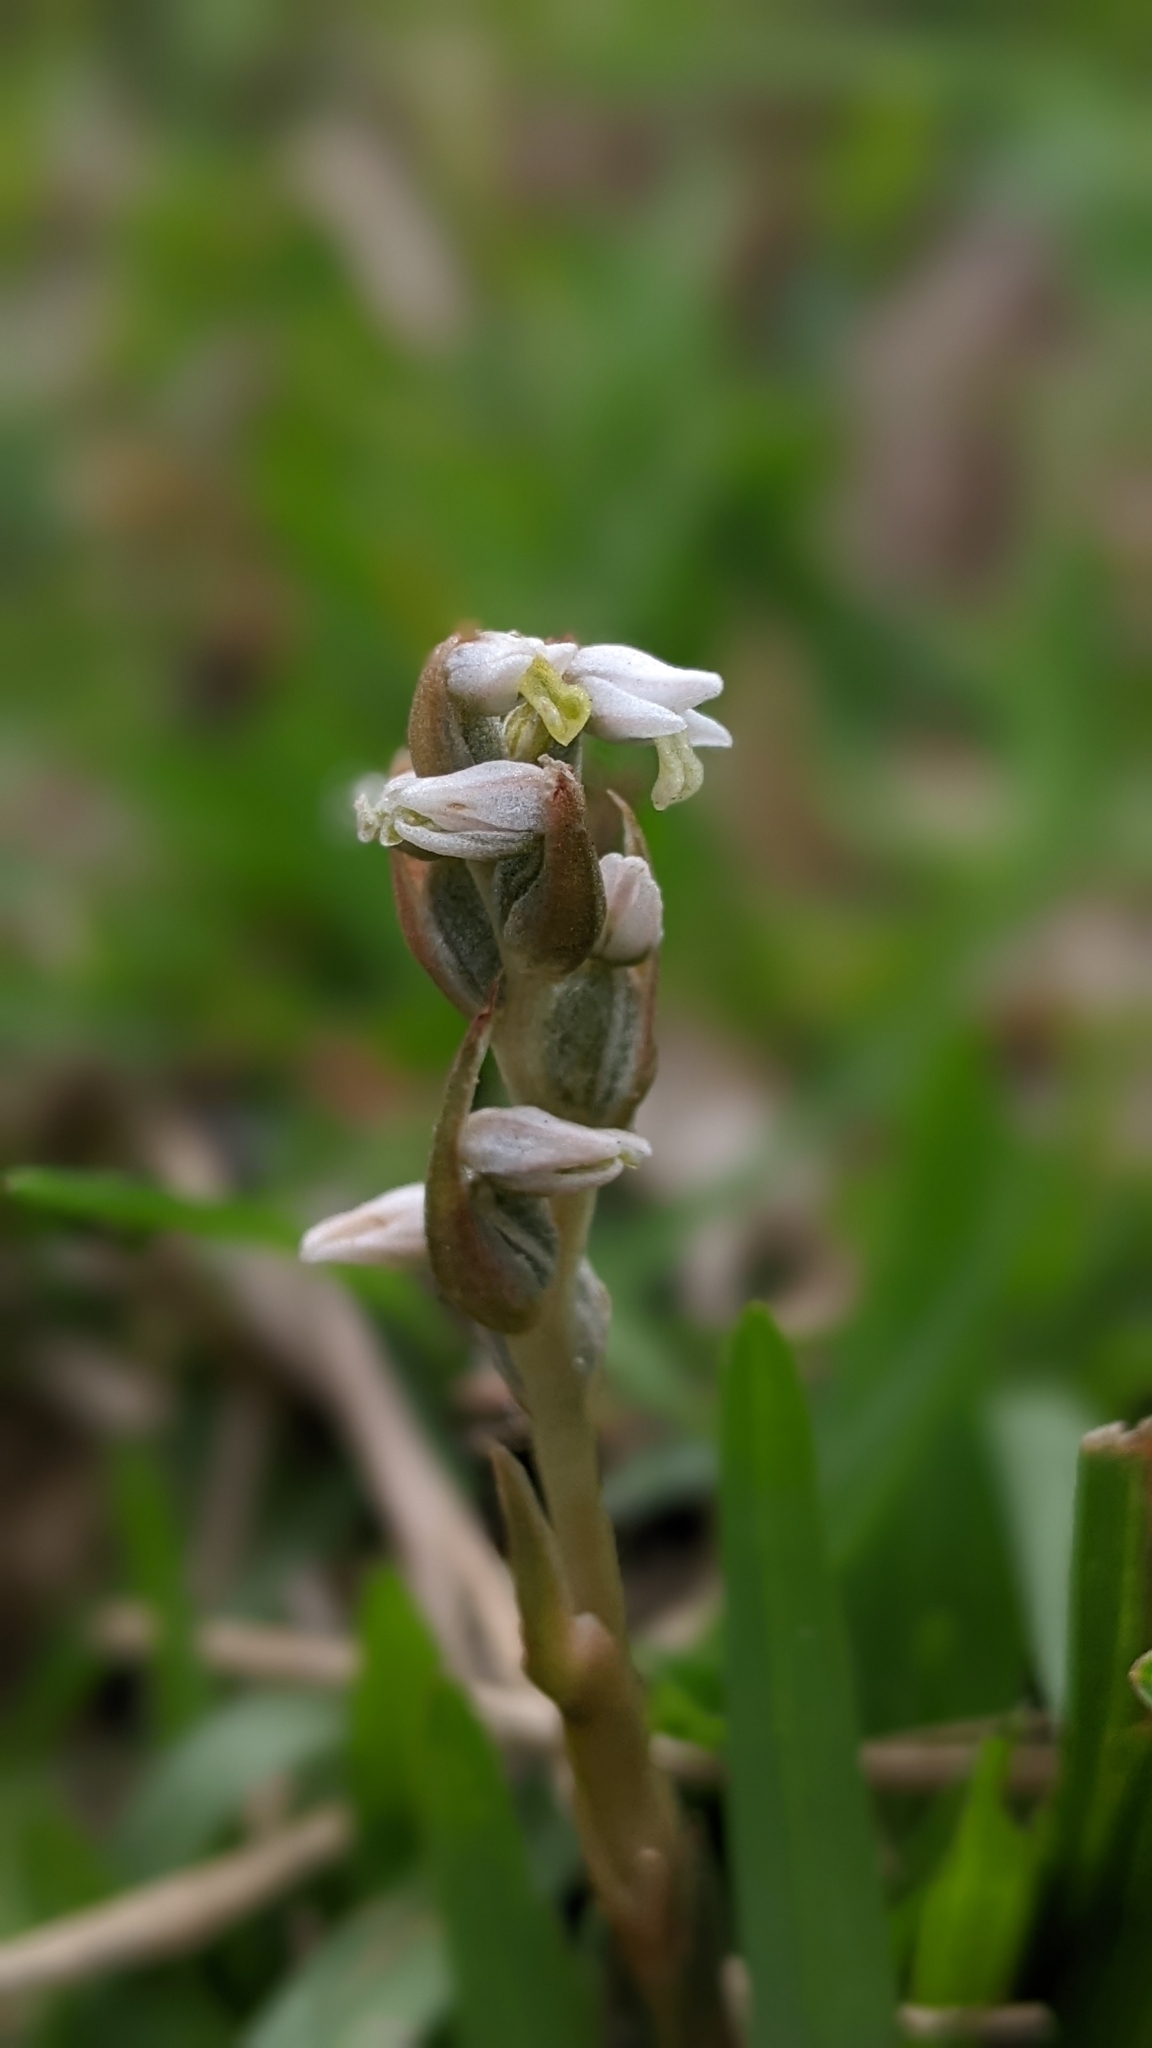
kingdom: Plantae
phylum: Tracheophyta
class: Liliopsida
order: Asparagales
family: Orchidaceae
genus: Zeuxine
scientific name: Zeuxine strateumatica
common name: Soldier's orchid
